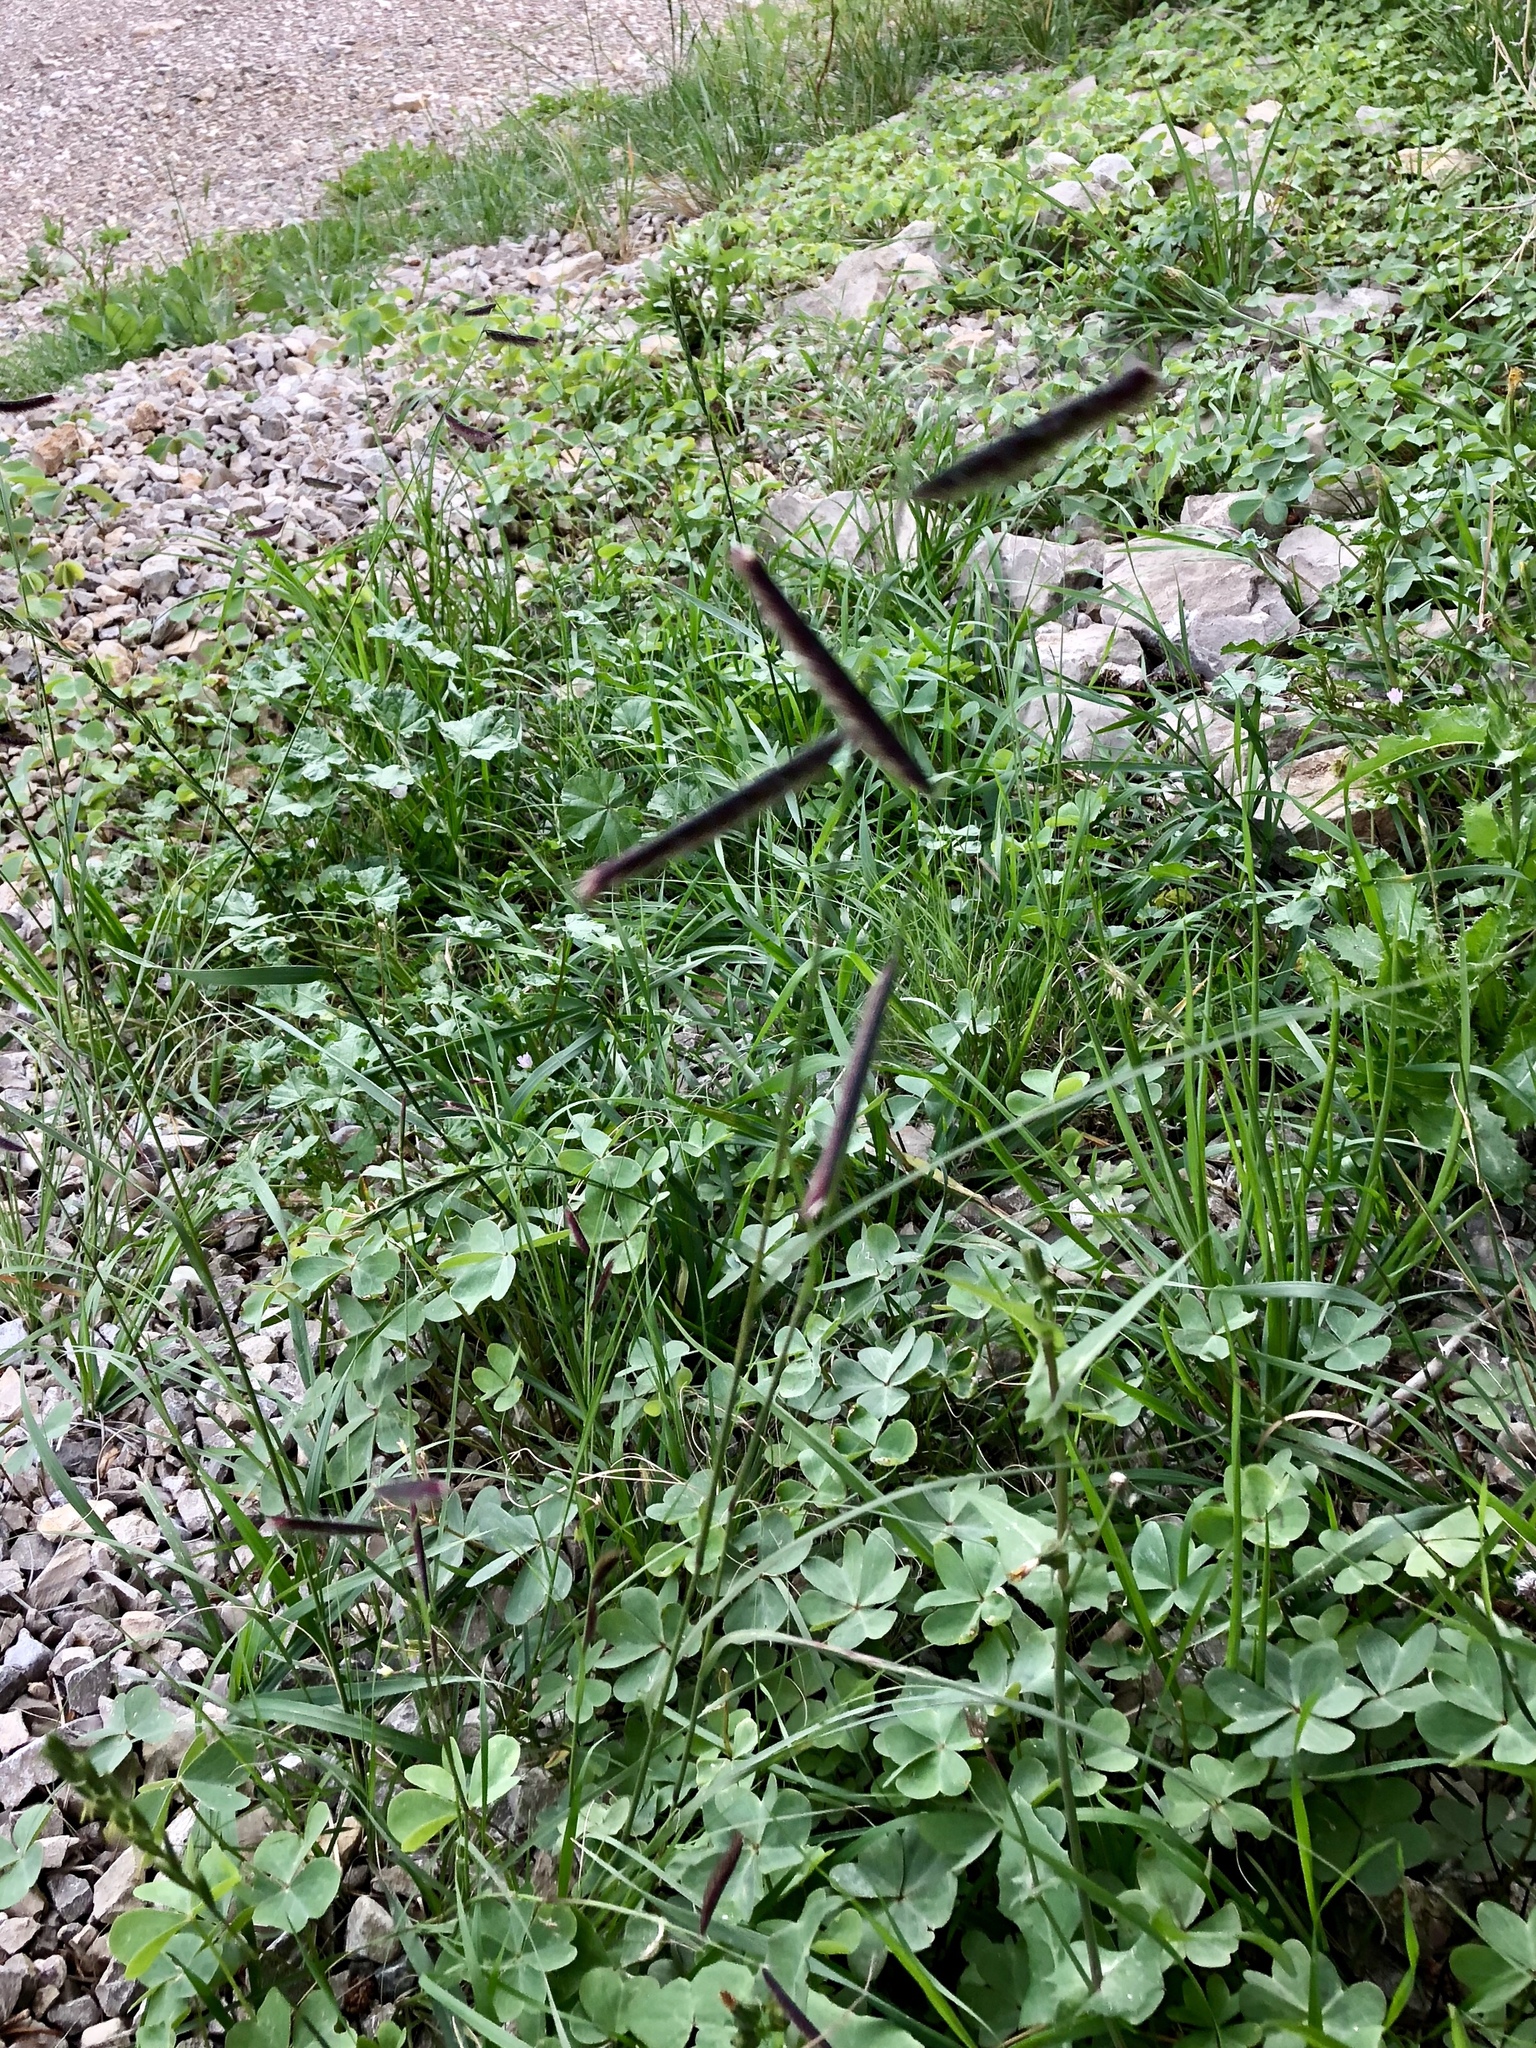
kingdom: Plantae
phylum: Tracheophyta
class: Liliopsida
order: Poales
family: Poaceae
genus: Bouteloua
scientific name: Bouteloua gracilis
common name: Blue grama
